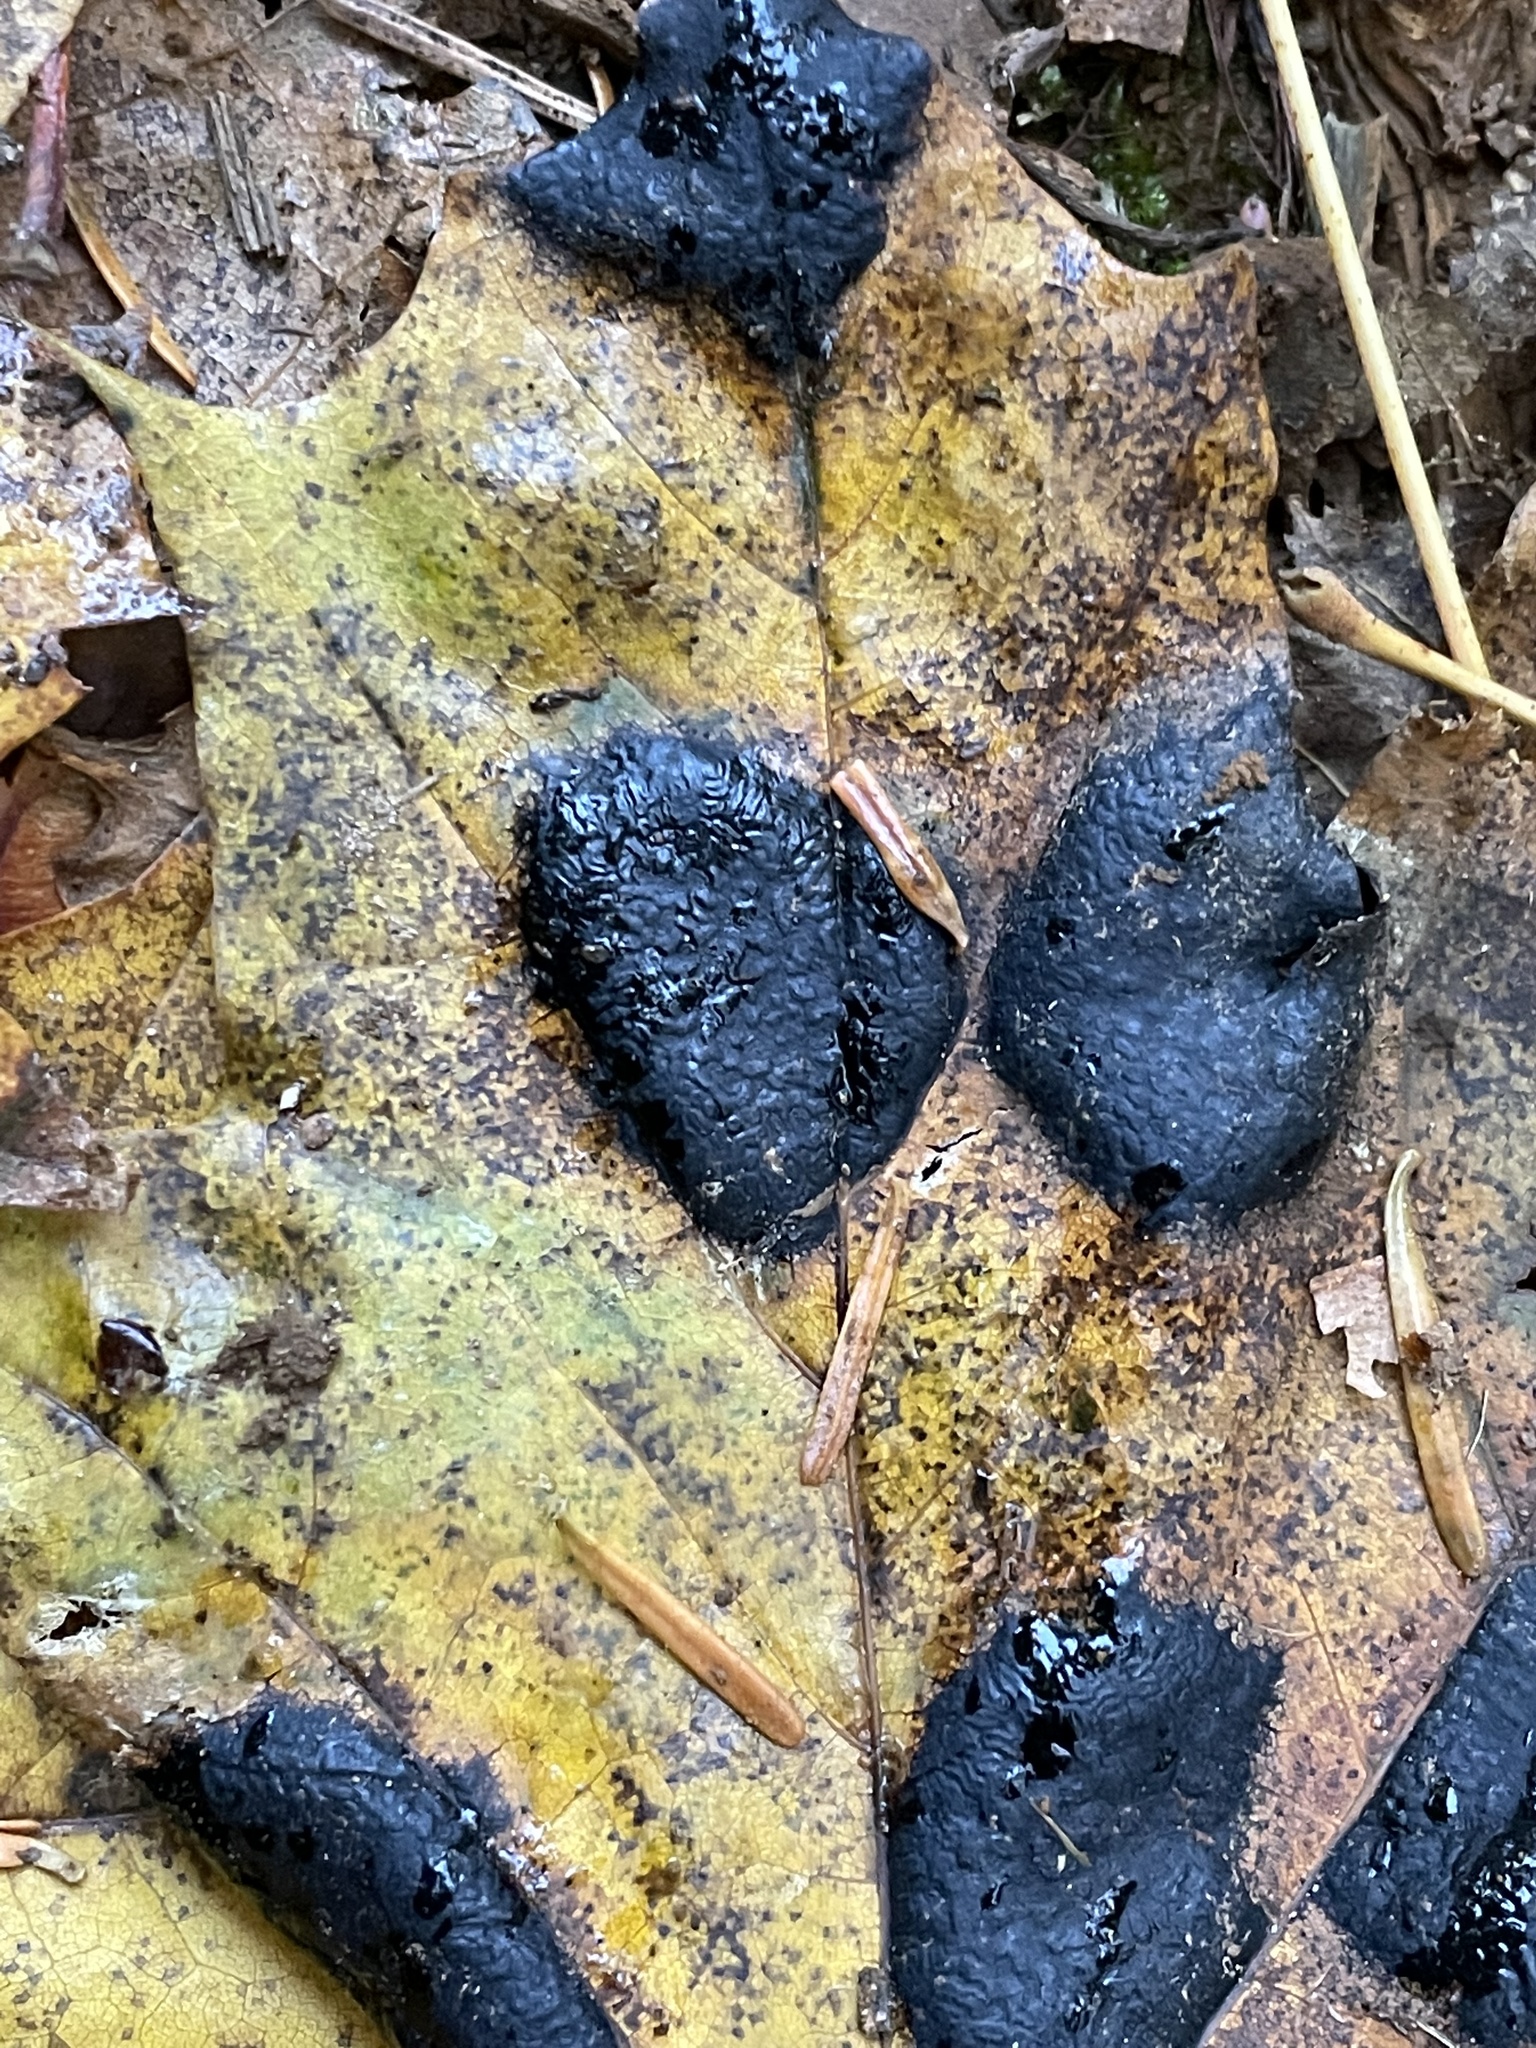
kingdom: Fungi
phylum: Ascomycota
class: Leotiomycetes
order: Rhytismatales
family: Rhytismataceae
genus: Rhytisma
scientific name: Rhytisma acerinum
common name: European tar spot
